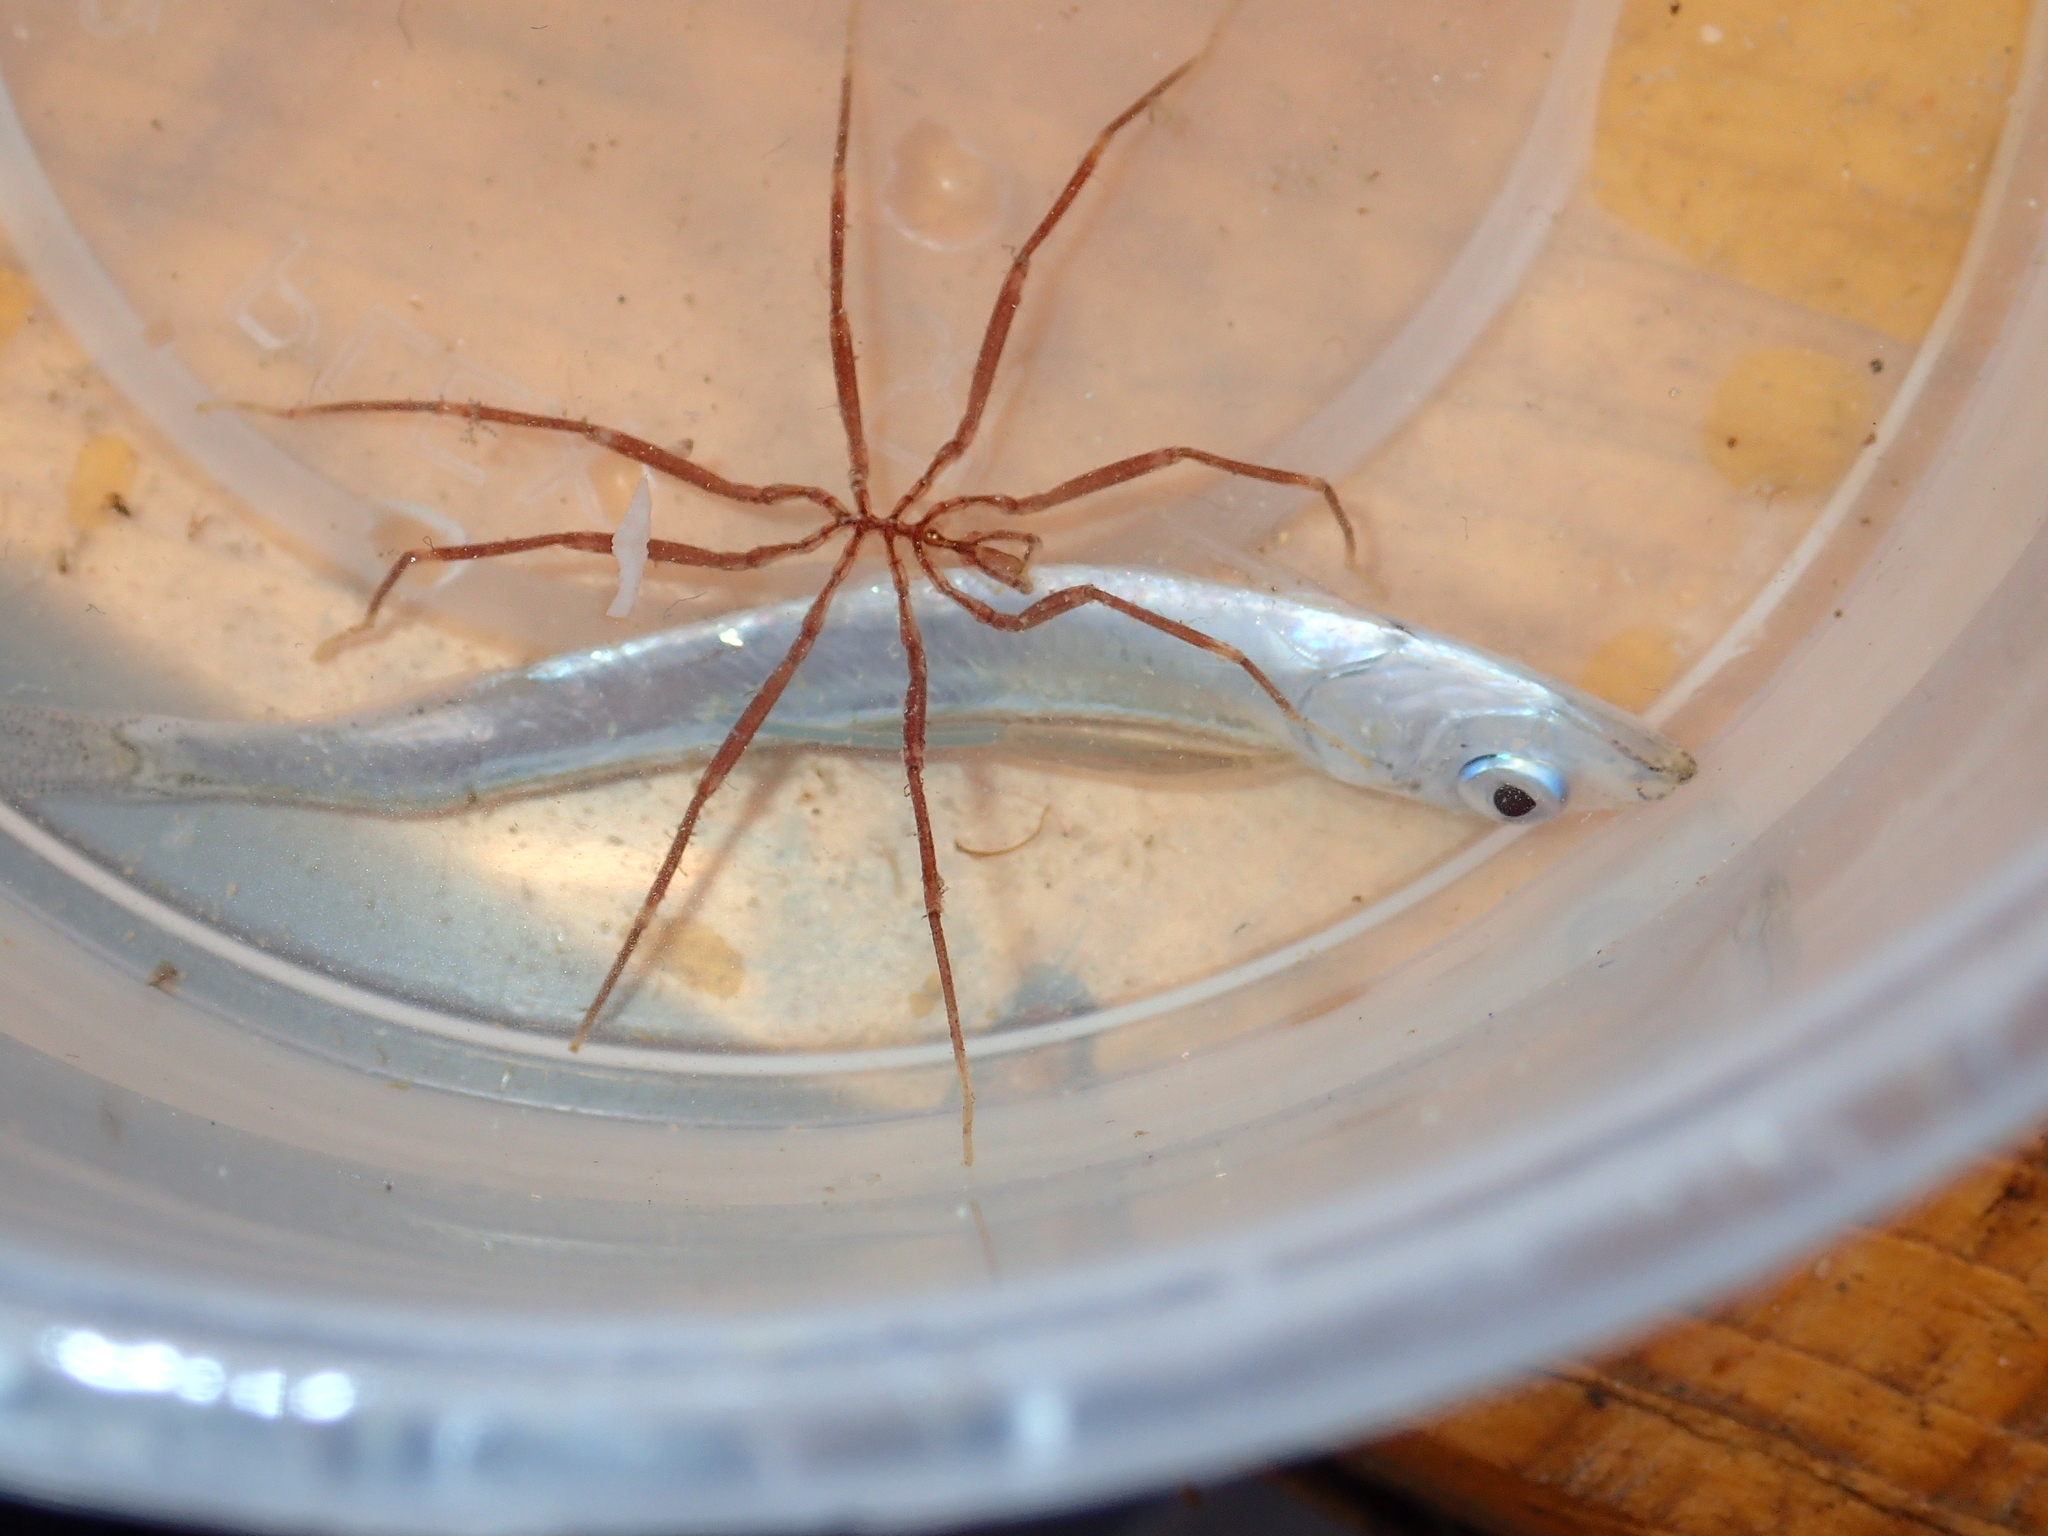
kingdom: Animalia
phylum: Arthropoda
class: Pycnogonida
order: Pantopoda
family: Nymphonidae
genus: Nymphon
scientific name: Nymphon gracile
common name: Gangly lancer
